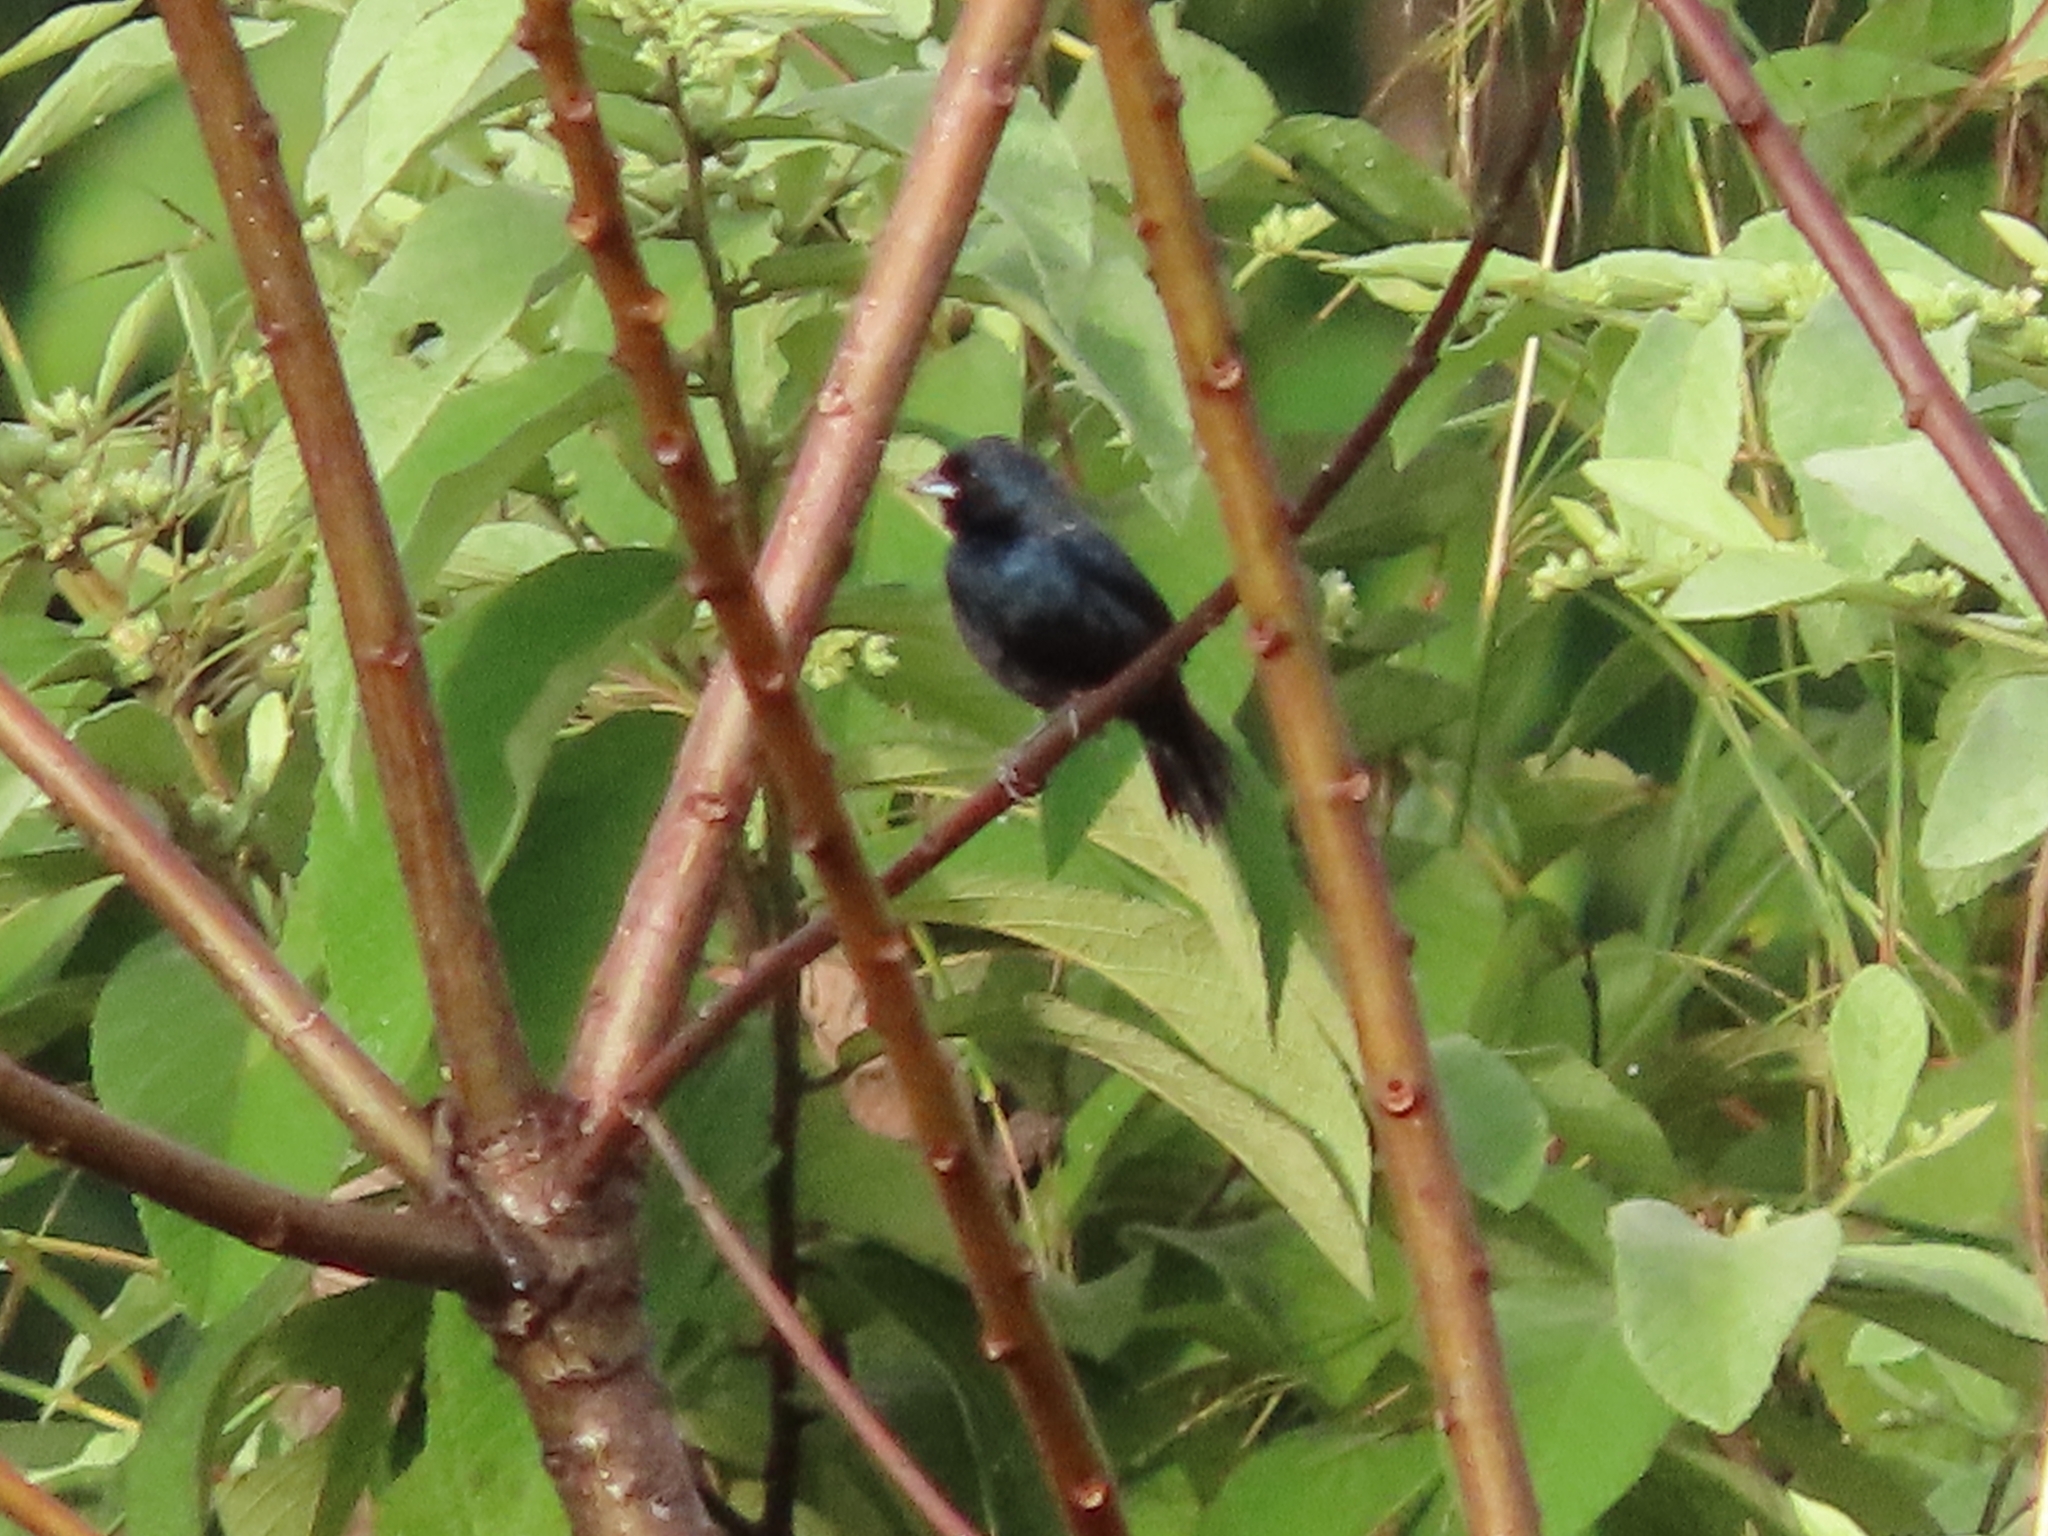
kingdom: Animalia
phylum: Chordata
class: Aves
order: Passeriformes
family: Thraupidae
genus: Volatinia
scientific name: Volatinia jacarina
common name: Blue-black grassquit
